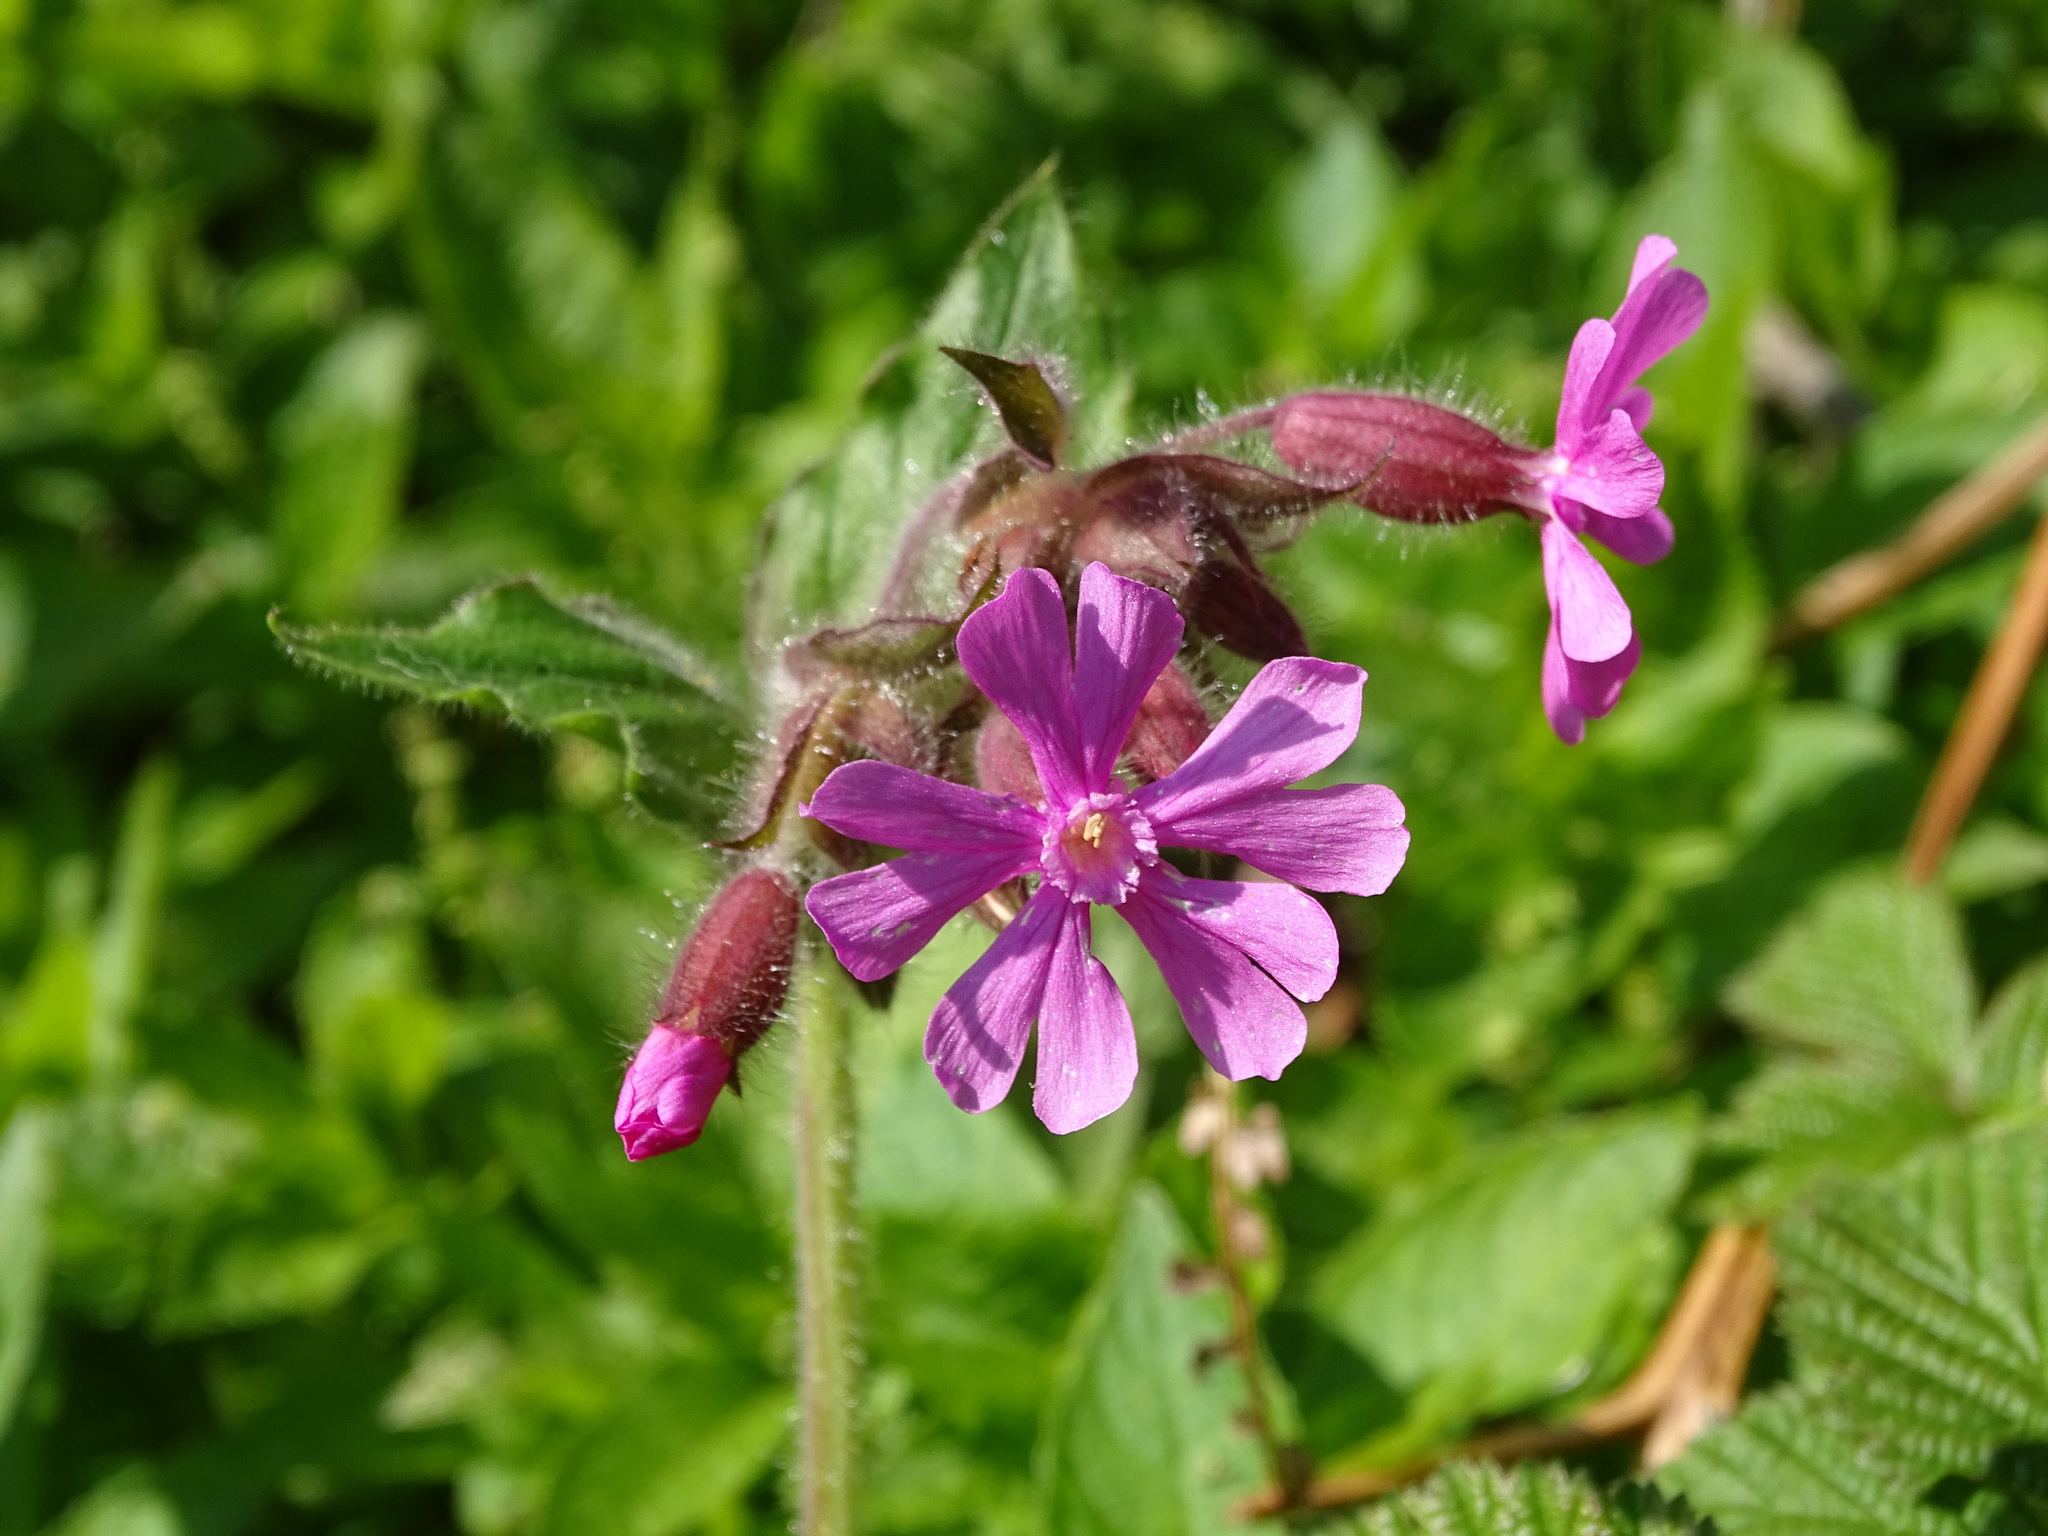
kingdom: Plantae
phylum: Tracheophyta
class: Magnoliopsida
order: Caryophyllales
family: Caryophyllaceae
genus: Silene
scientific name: Silene dioica
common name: Red campion
